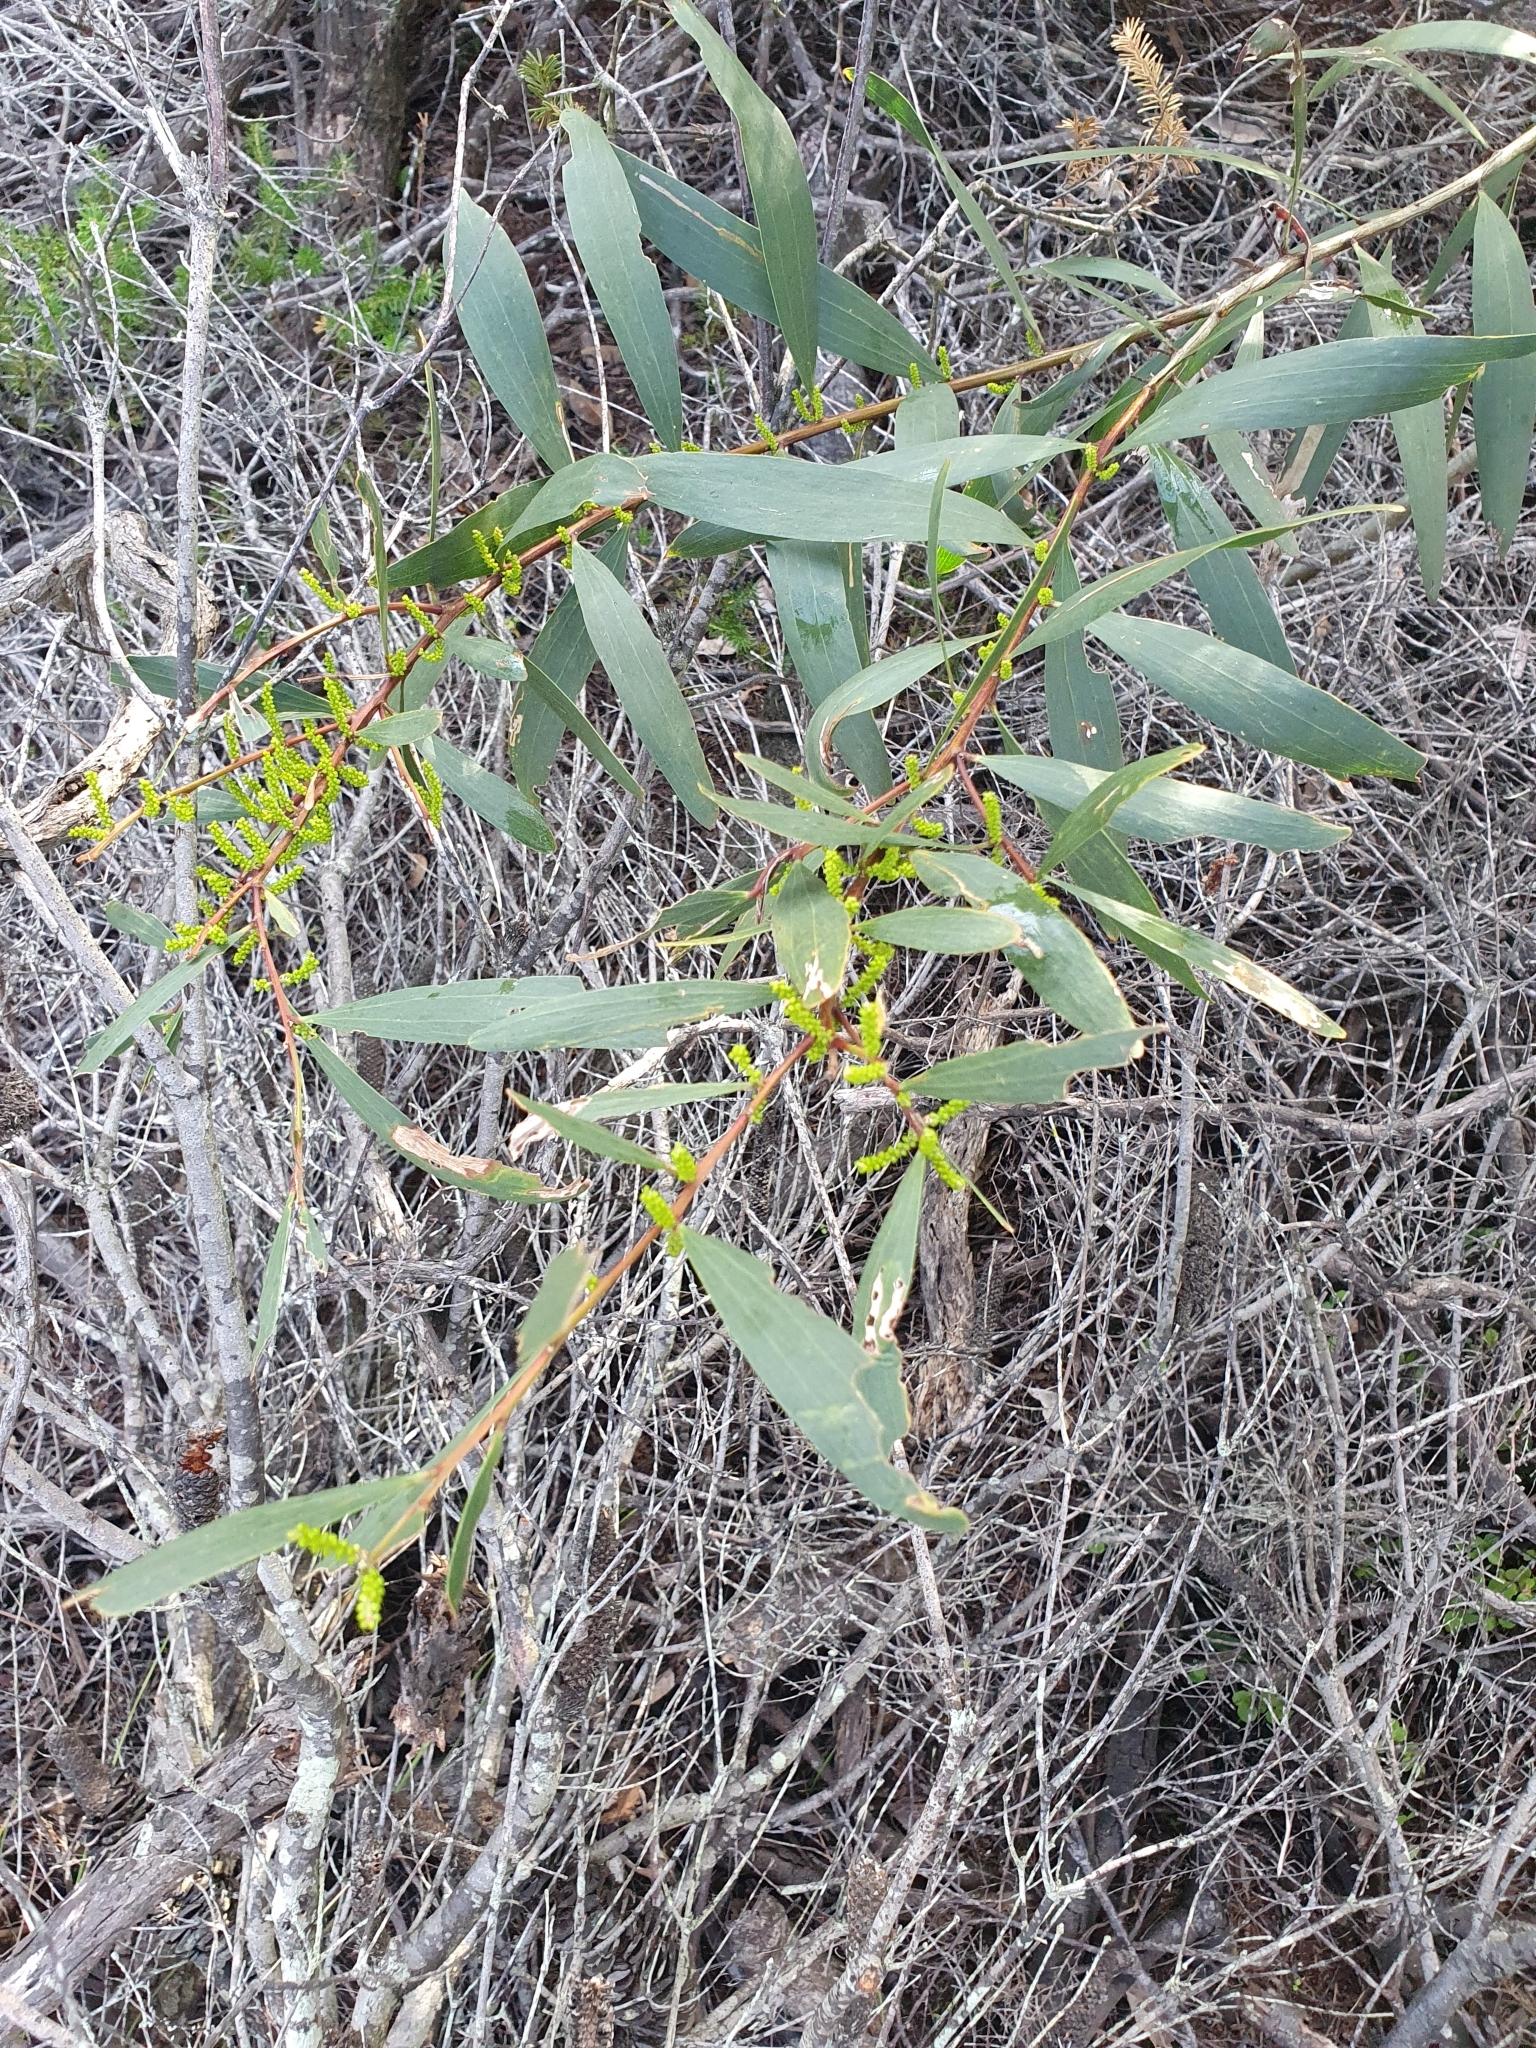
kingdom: Plantae
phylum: Tracheophyta
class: Magnoliopsida
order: Fabales
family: Fabaceae
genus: Acacia
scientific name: Acacia longifolia
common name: Sydney golden wattle
